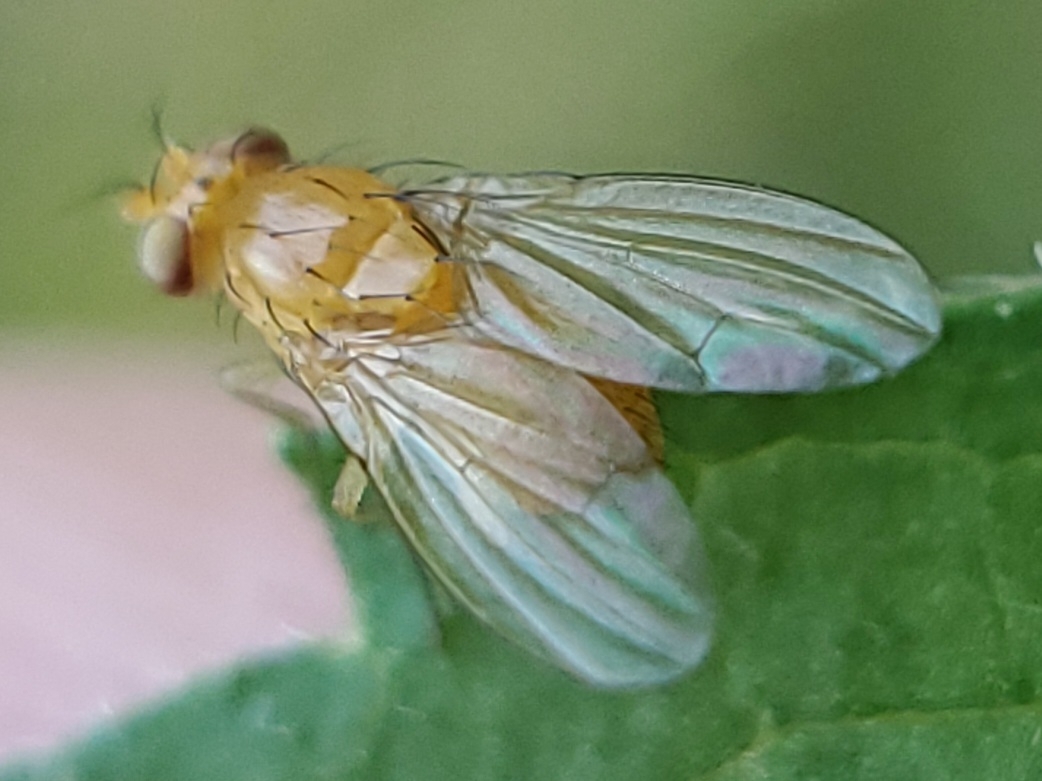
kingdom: Animalia
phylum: Arthropoda
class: Insecta
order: Diptera
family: Lauxaniidae
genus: Neogriphoneura
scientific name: Neogriphoneura sordida
